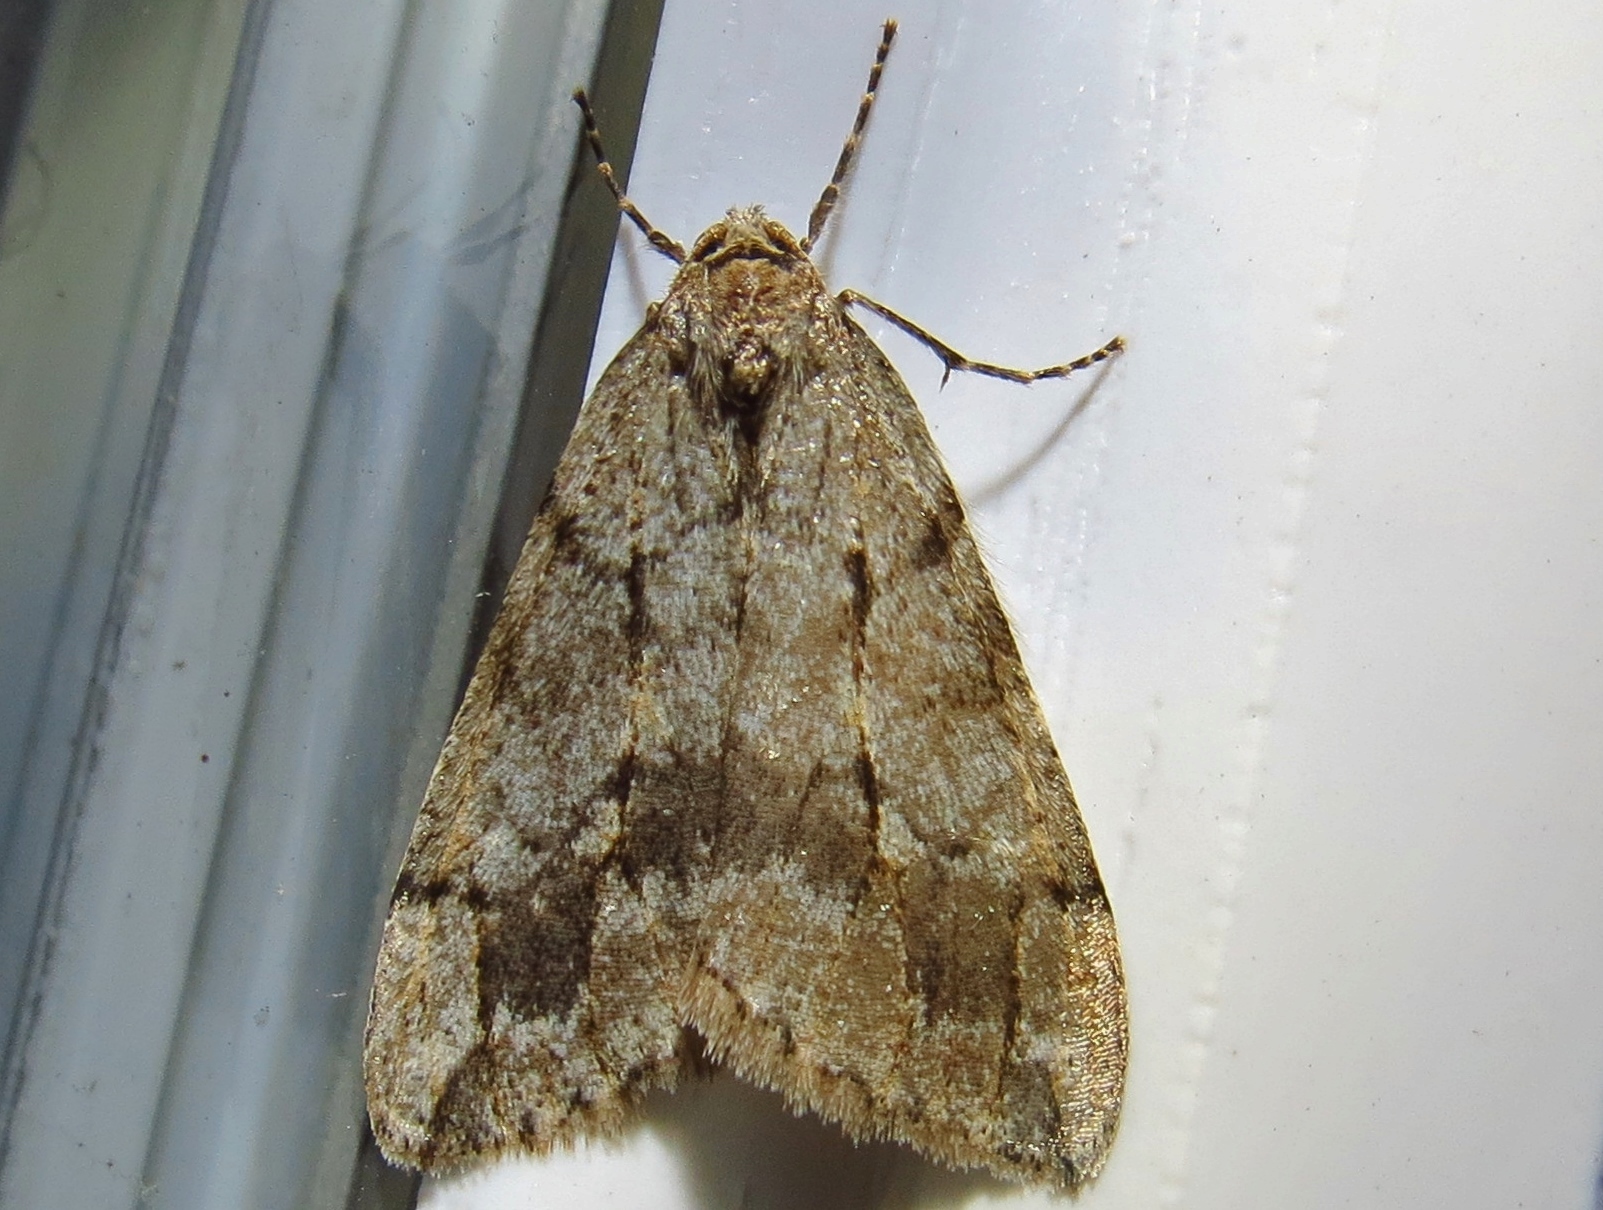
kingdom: Animalia
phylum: Arthropoda
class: Insecta
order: Lepidoptera
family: Geometridae
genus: Paleacrita
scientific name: Paleacrita vernata
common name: Spring cankerworm
